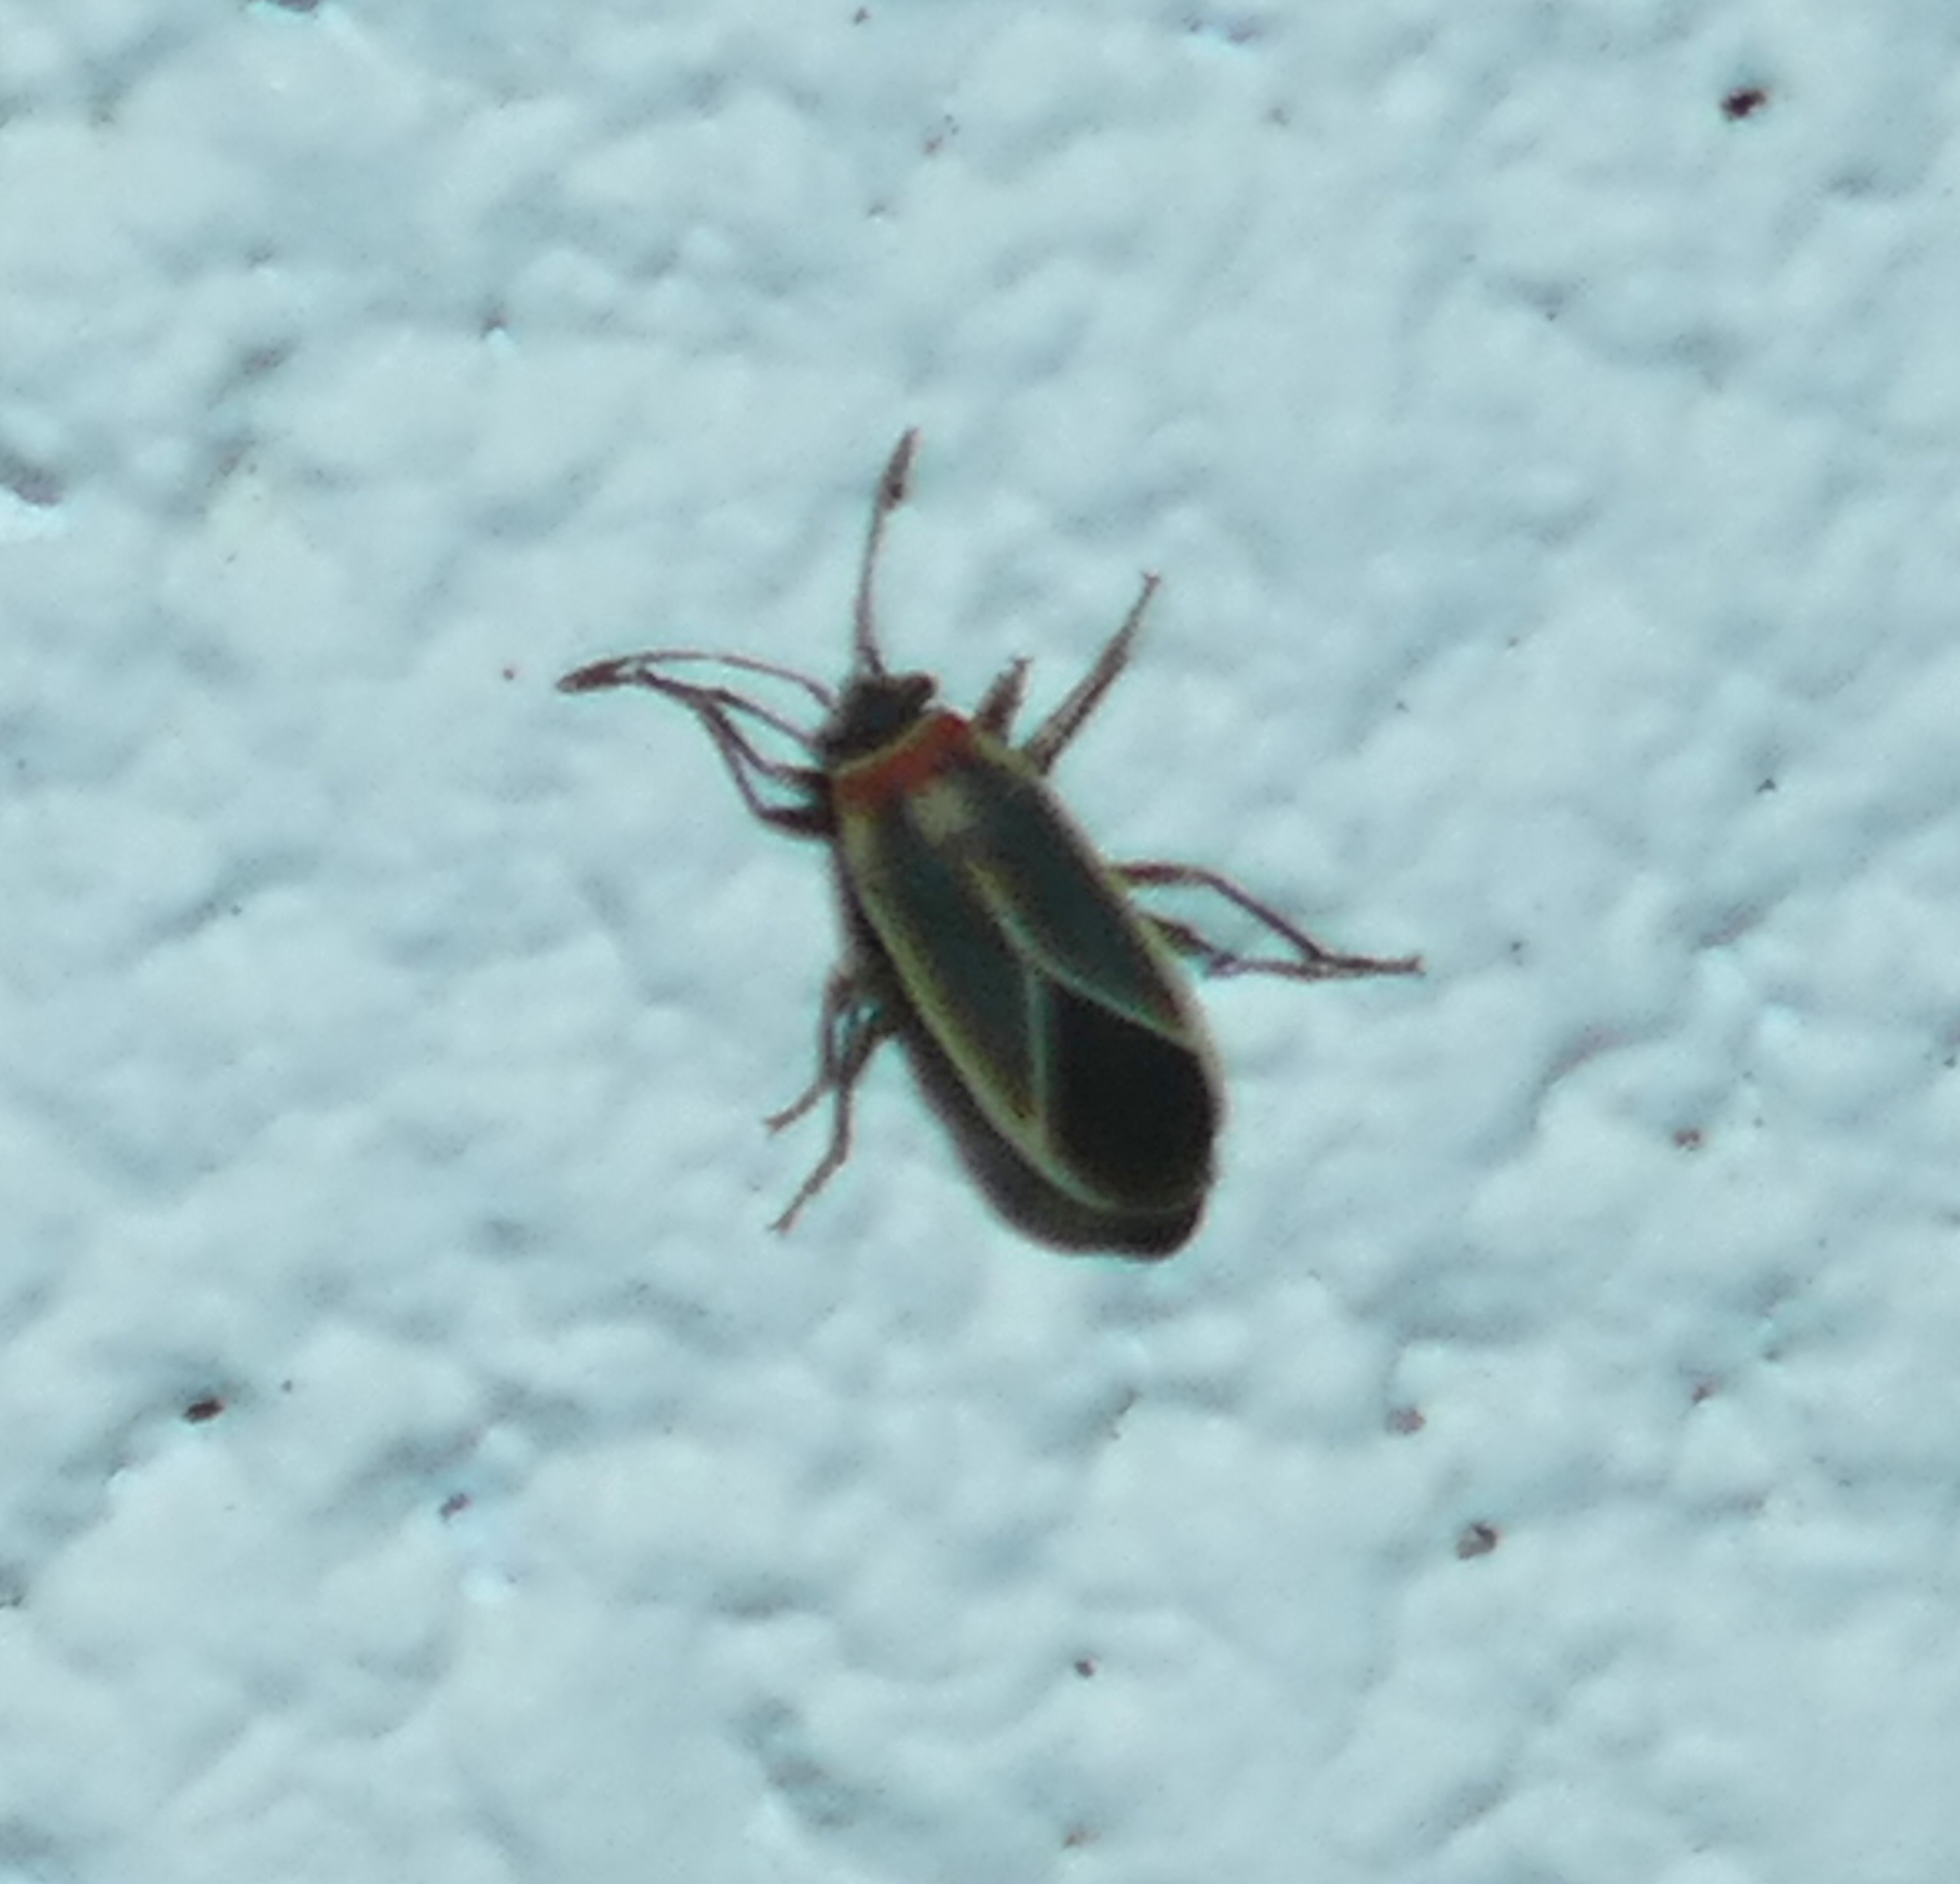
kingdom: Animalia
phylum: Arthropoda
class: Insecta
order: Hemiptera
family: Lygaeidae
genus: Ochrimnus
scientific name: Ochrimnus mimulus
